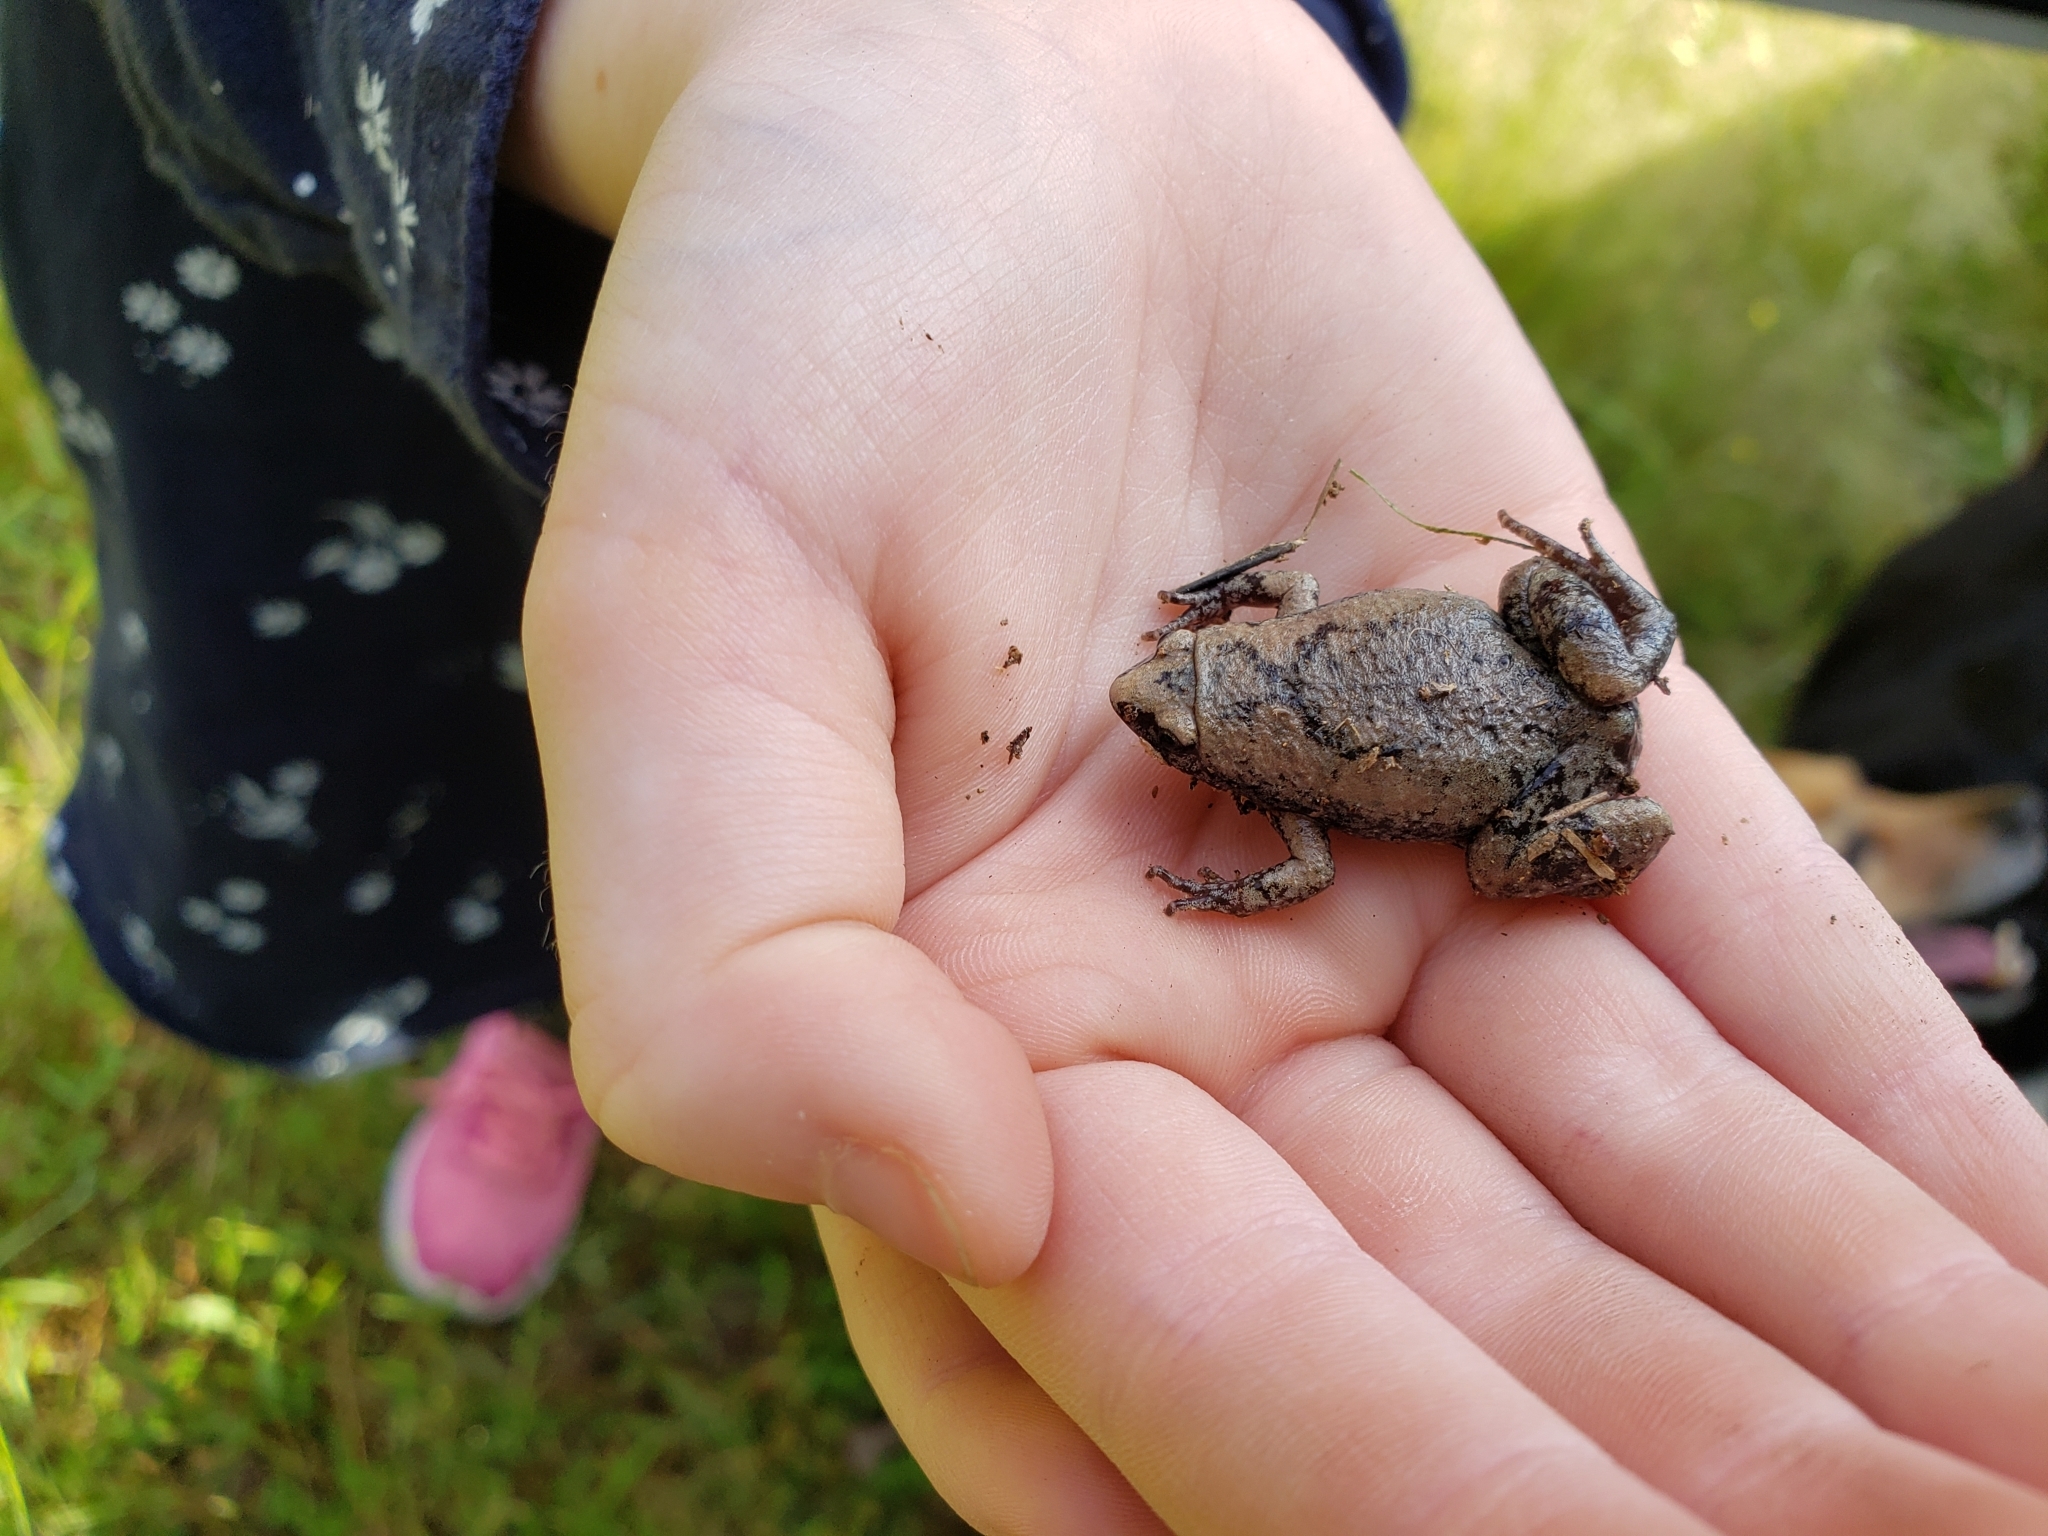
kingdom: Animalia
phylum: Chordata
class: Amphibia
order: Anura
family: Microhylidae
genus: Gastrophryne
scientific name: Gastrophryne carolinensis
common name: Eastern narrowmouth toad
